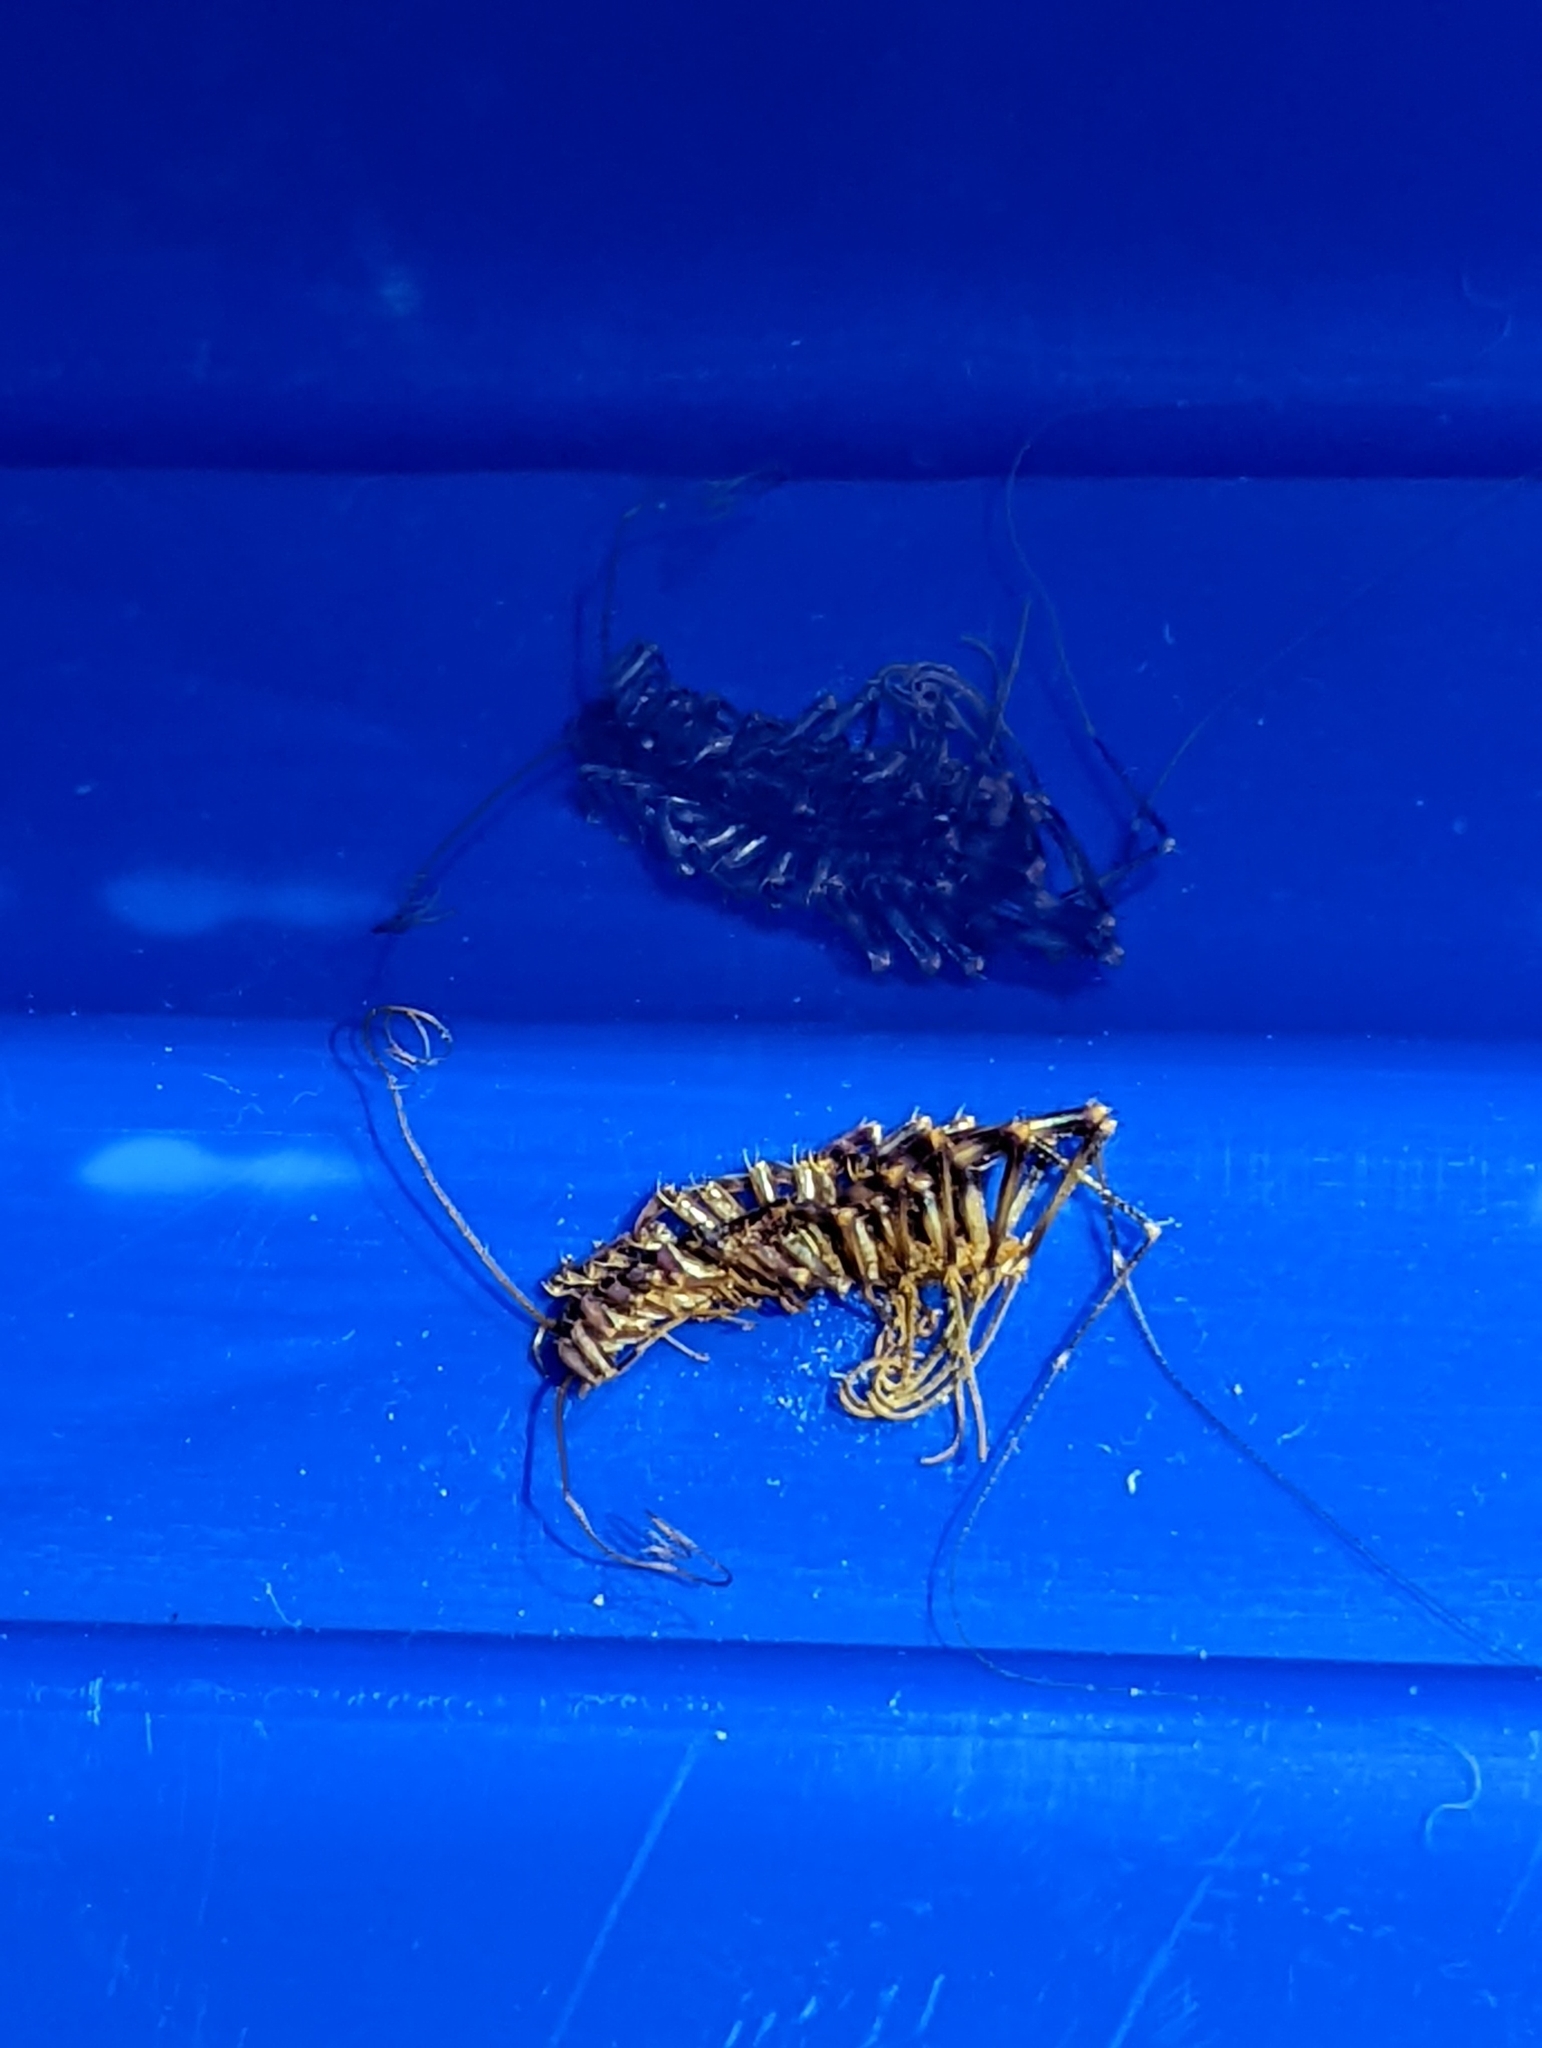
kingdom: Animalia
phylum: Arthropoda
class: Chilopoda
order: Scutigeromorpha
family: Scutigeridae
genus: Scutigera
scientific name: Scutigera coleoptrata
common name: House centipede
